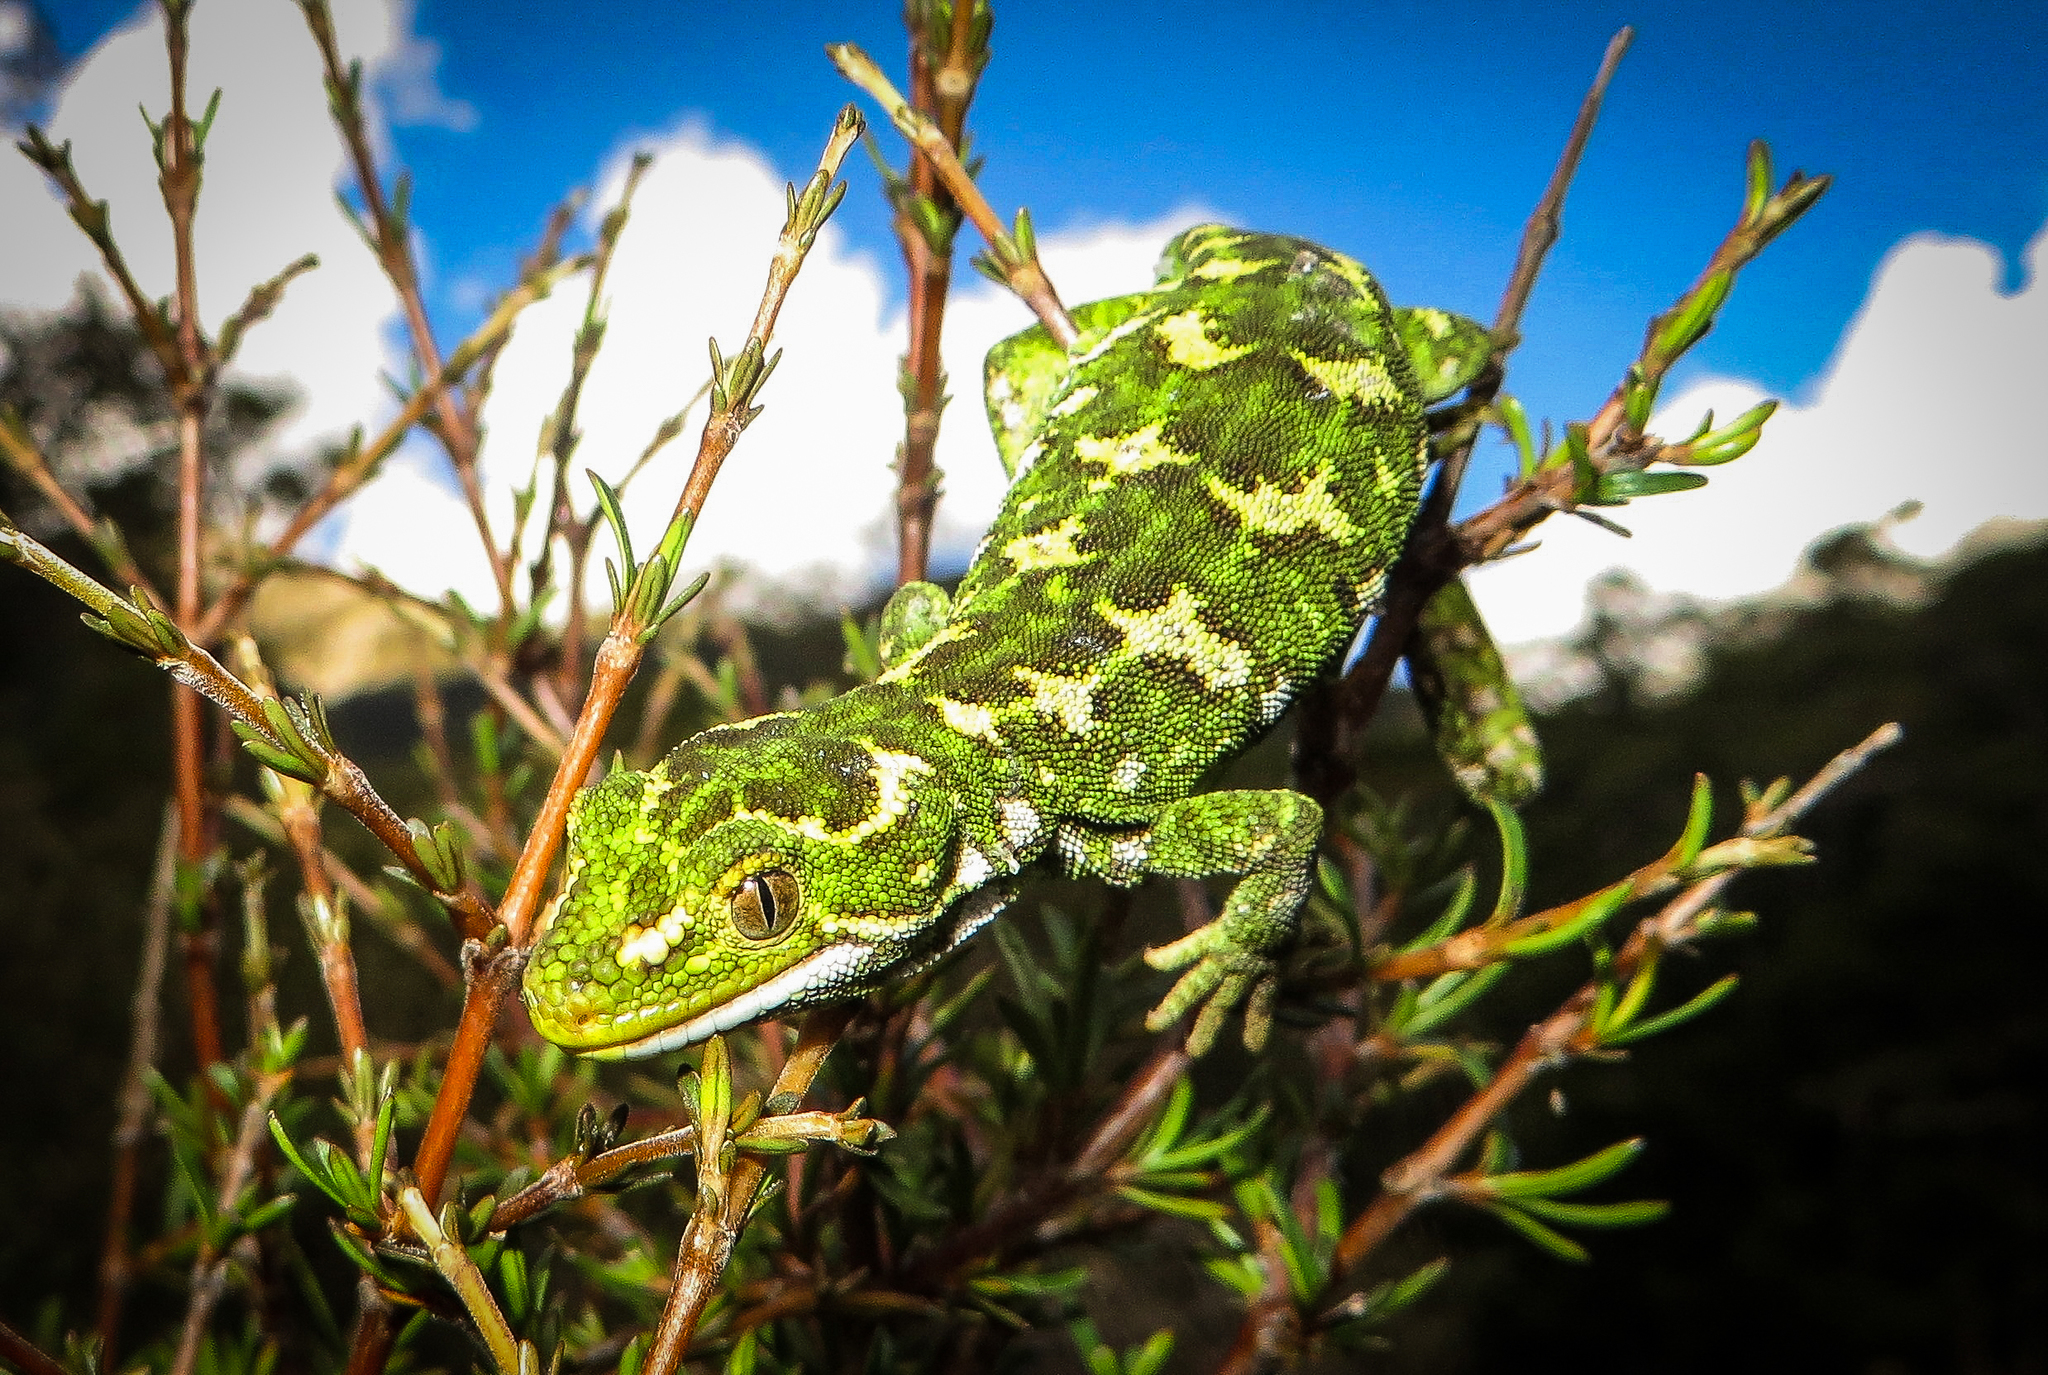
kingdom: Animalia
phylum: Chordata
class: Squamata
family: Diplodactylidae
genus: Naultinus
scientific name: Naultinus gemmeus
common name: Jewelled gecko
